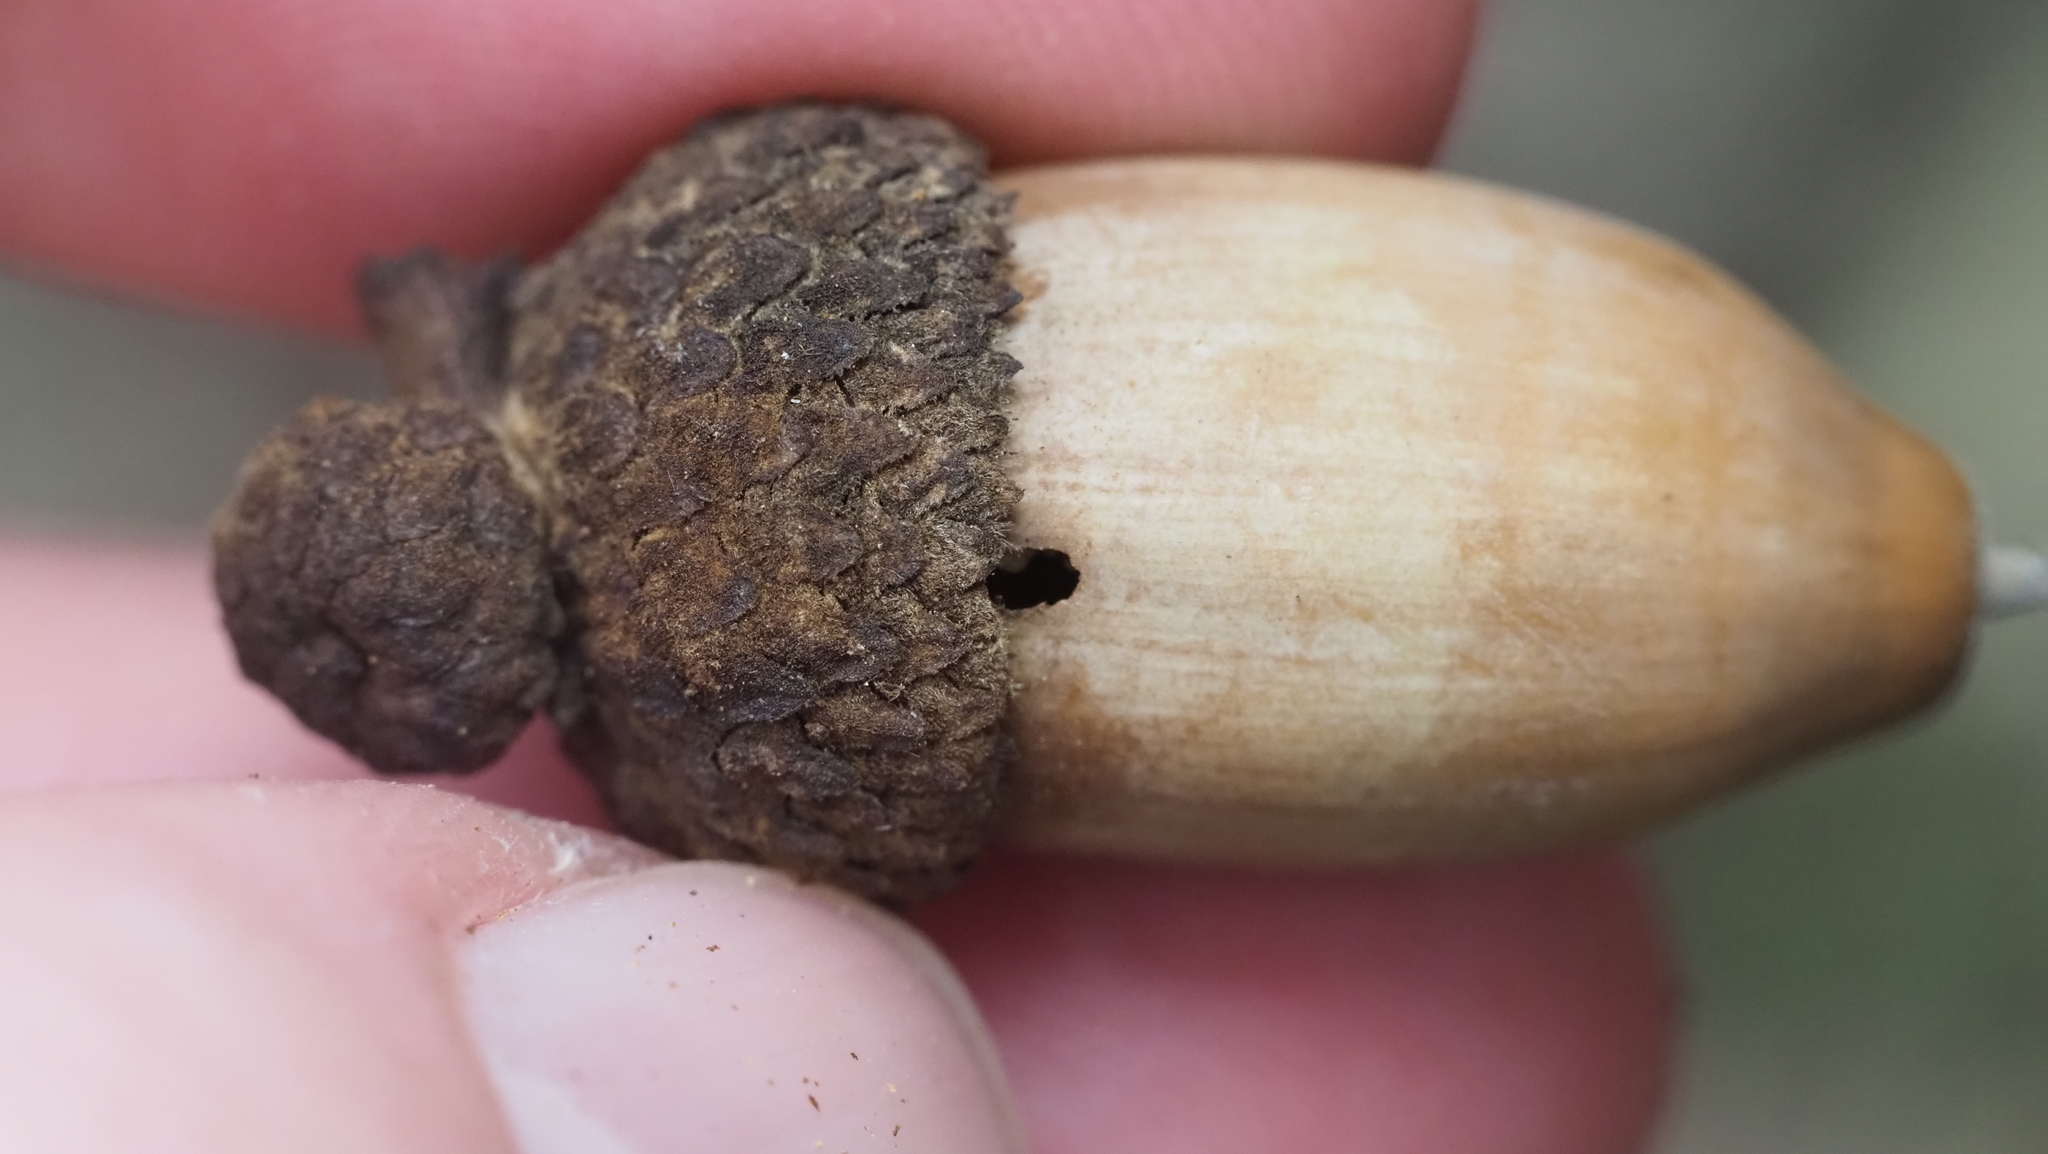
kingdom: Animalia
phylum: Arthropoda
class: Insecta
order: Coleoptera
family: Curculionidae
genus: Curculio
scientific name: Curculio
